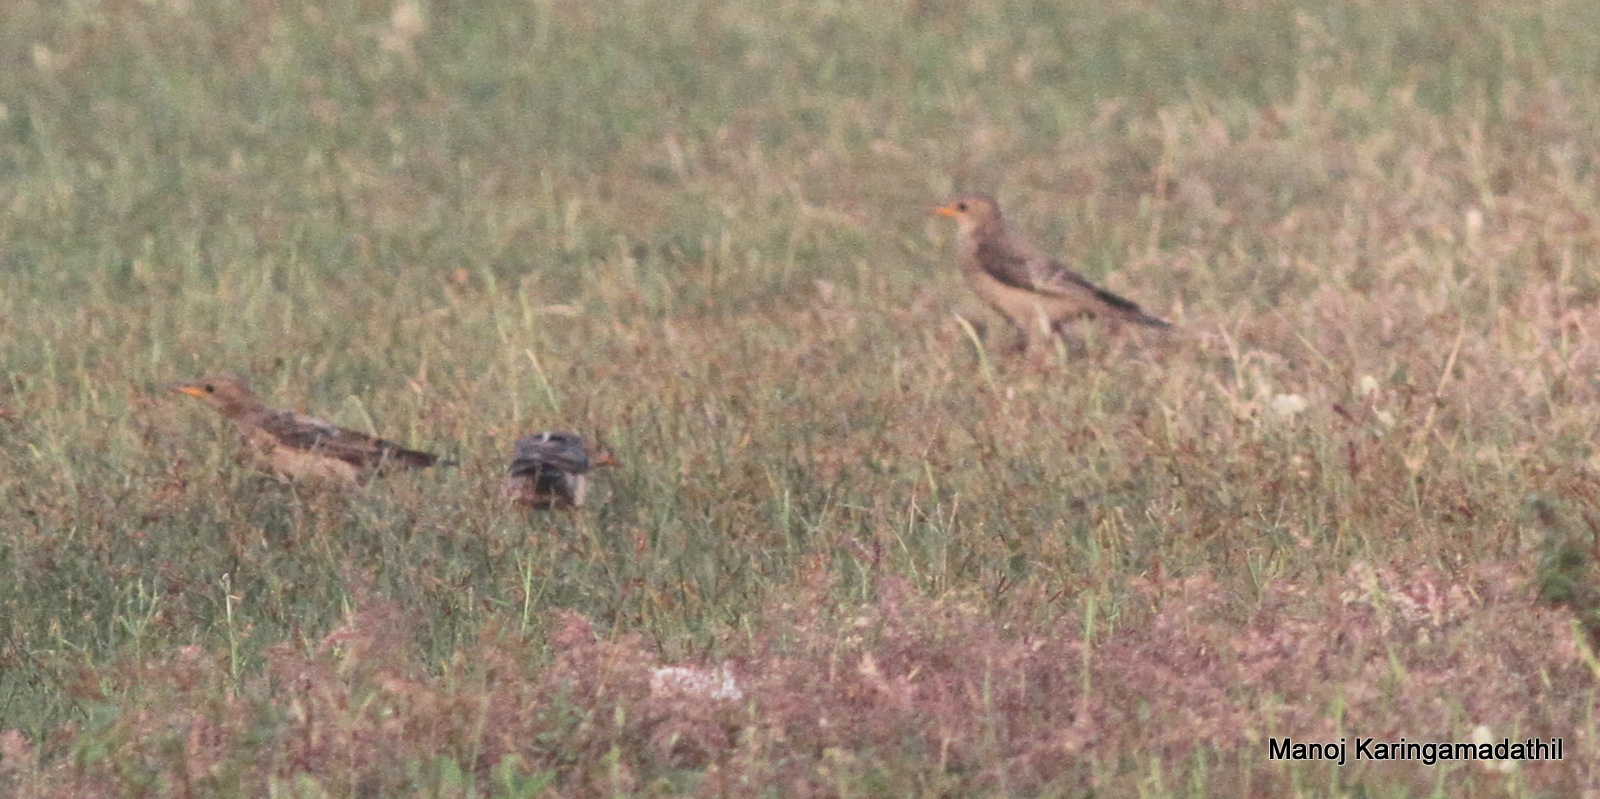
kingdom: Animalia
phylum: Chordata
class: Aves
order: Passeriformes
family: Sturnidae
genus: Pastor
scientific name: Pastor roseus
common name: Rosy starling
